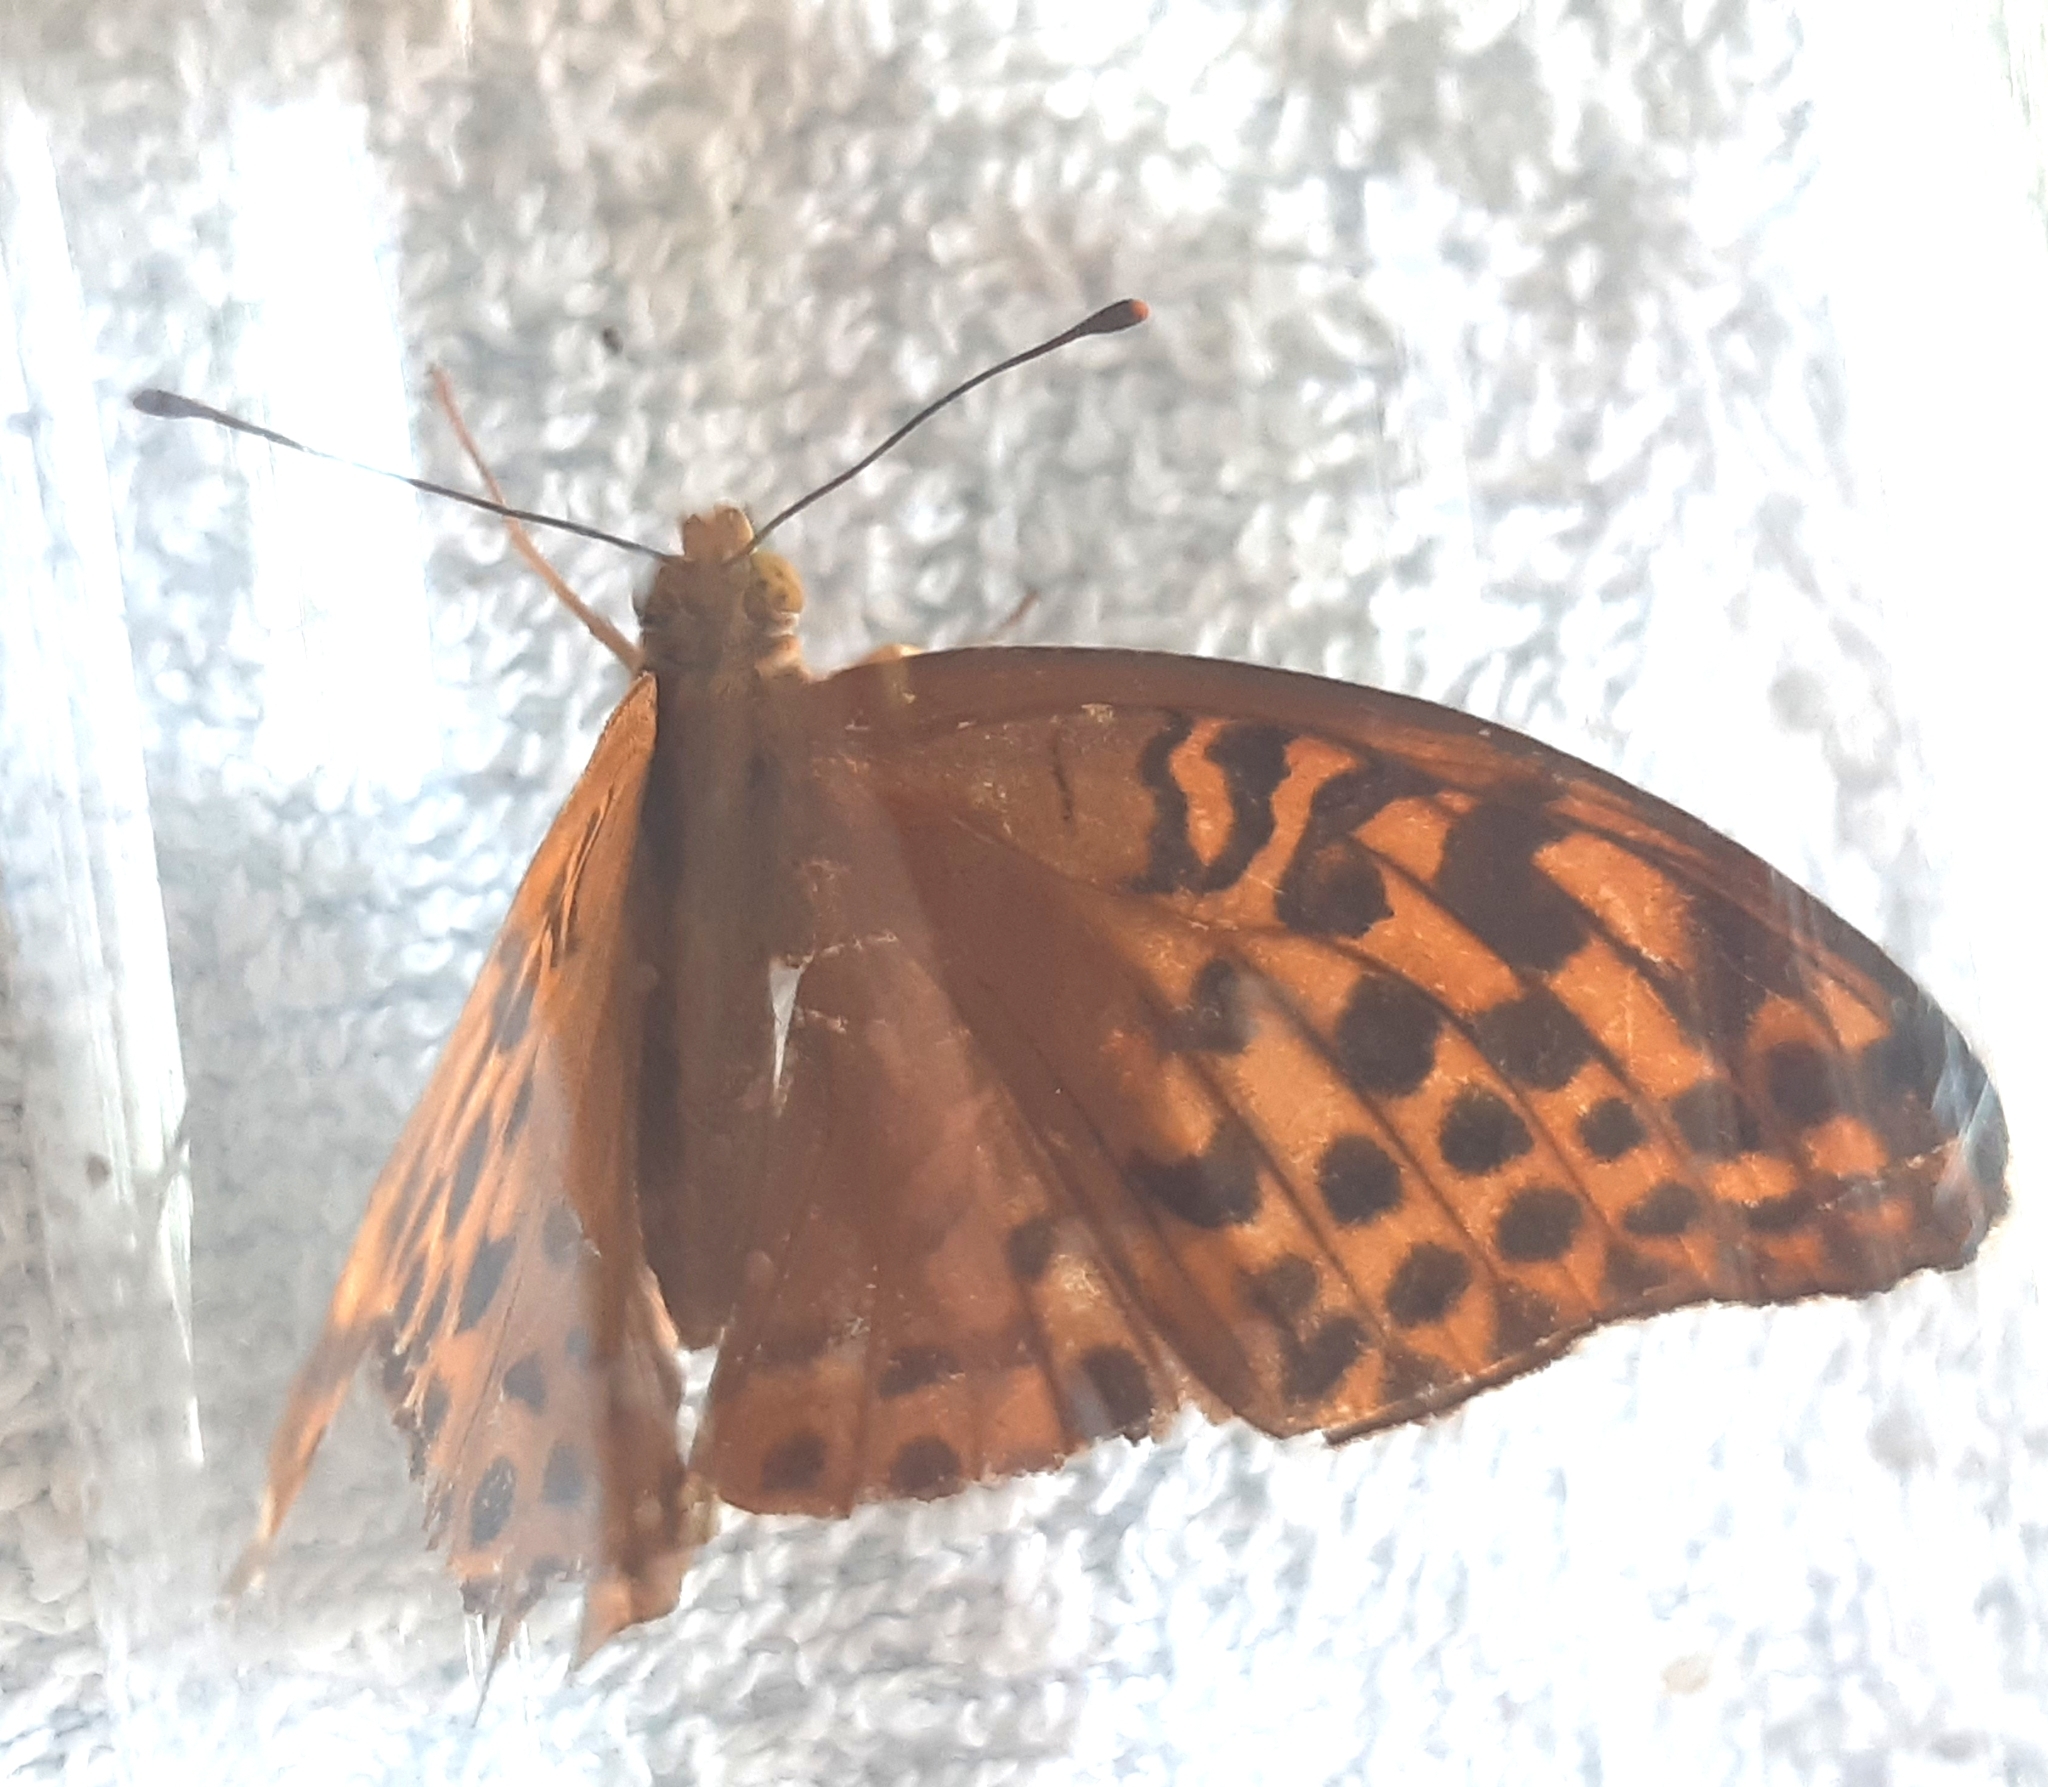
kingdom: Animalia
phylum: Arthropoda
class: Insecta
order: Lepidoptera
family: Nymphalidae
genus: Argynnis
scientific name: Argynnis paphia
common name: Silver-washed fritillary
